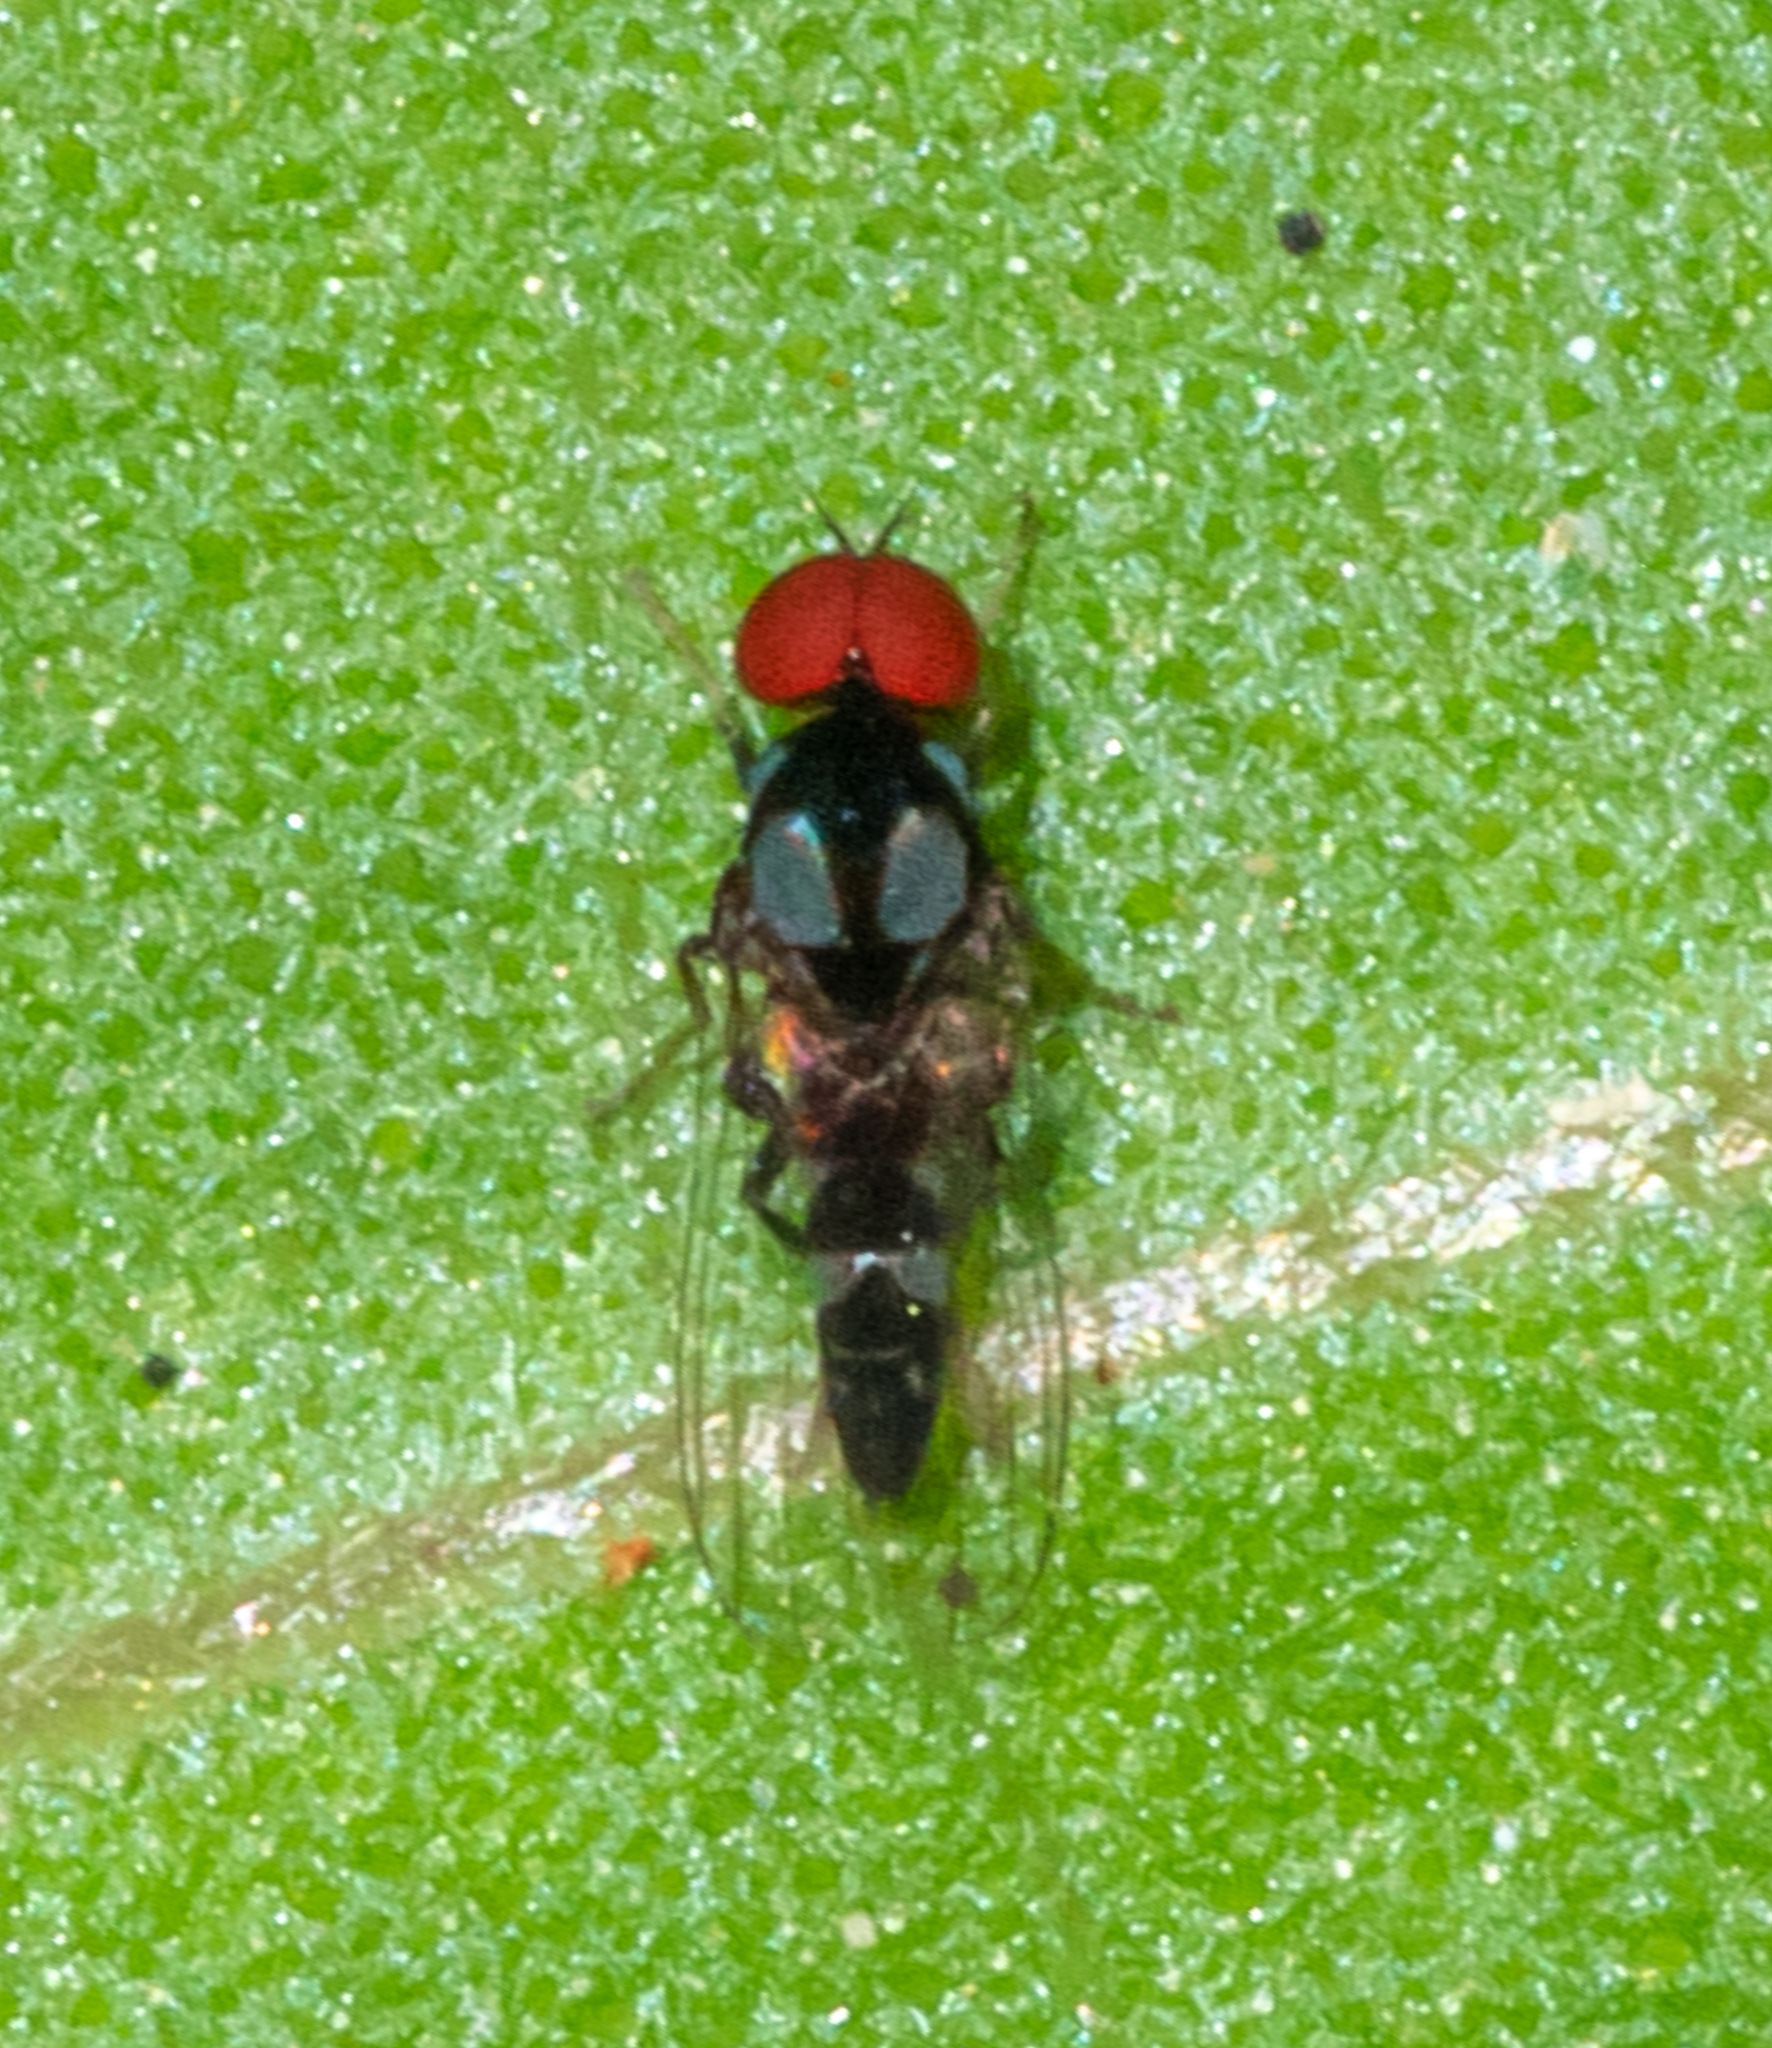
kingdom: Animalia
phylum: Arthropoda
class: Insecta
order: Diptera
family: Platypezidae
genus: Bertamyia
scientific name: Bertamyia notata
